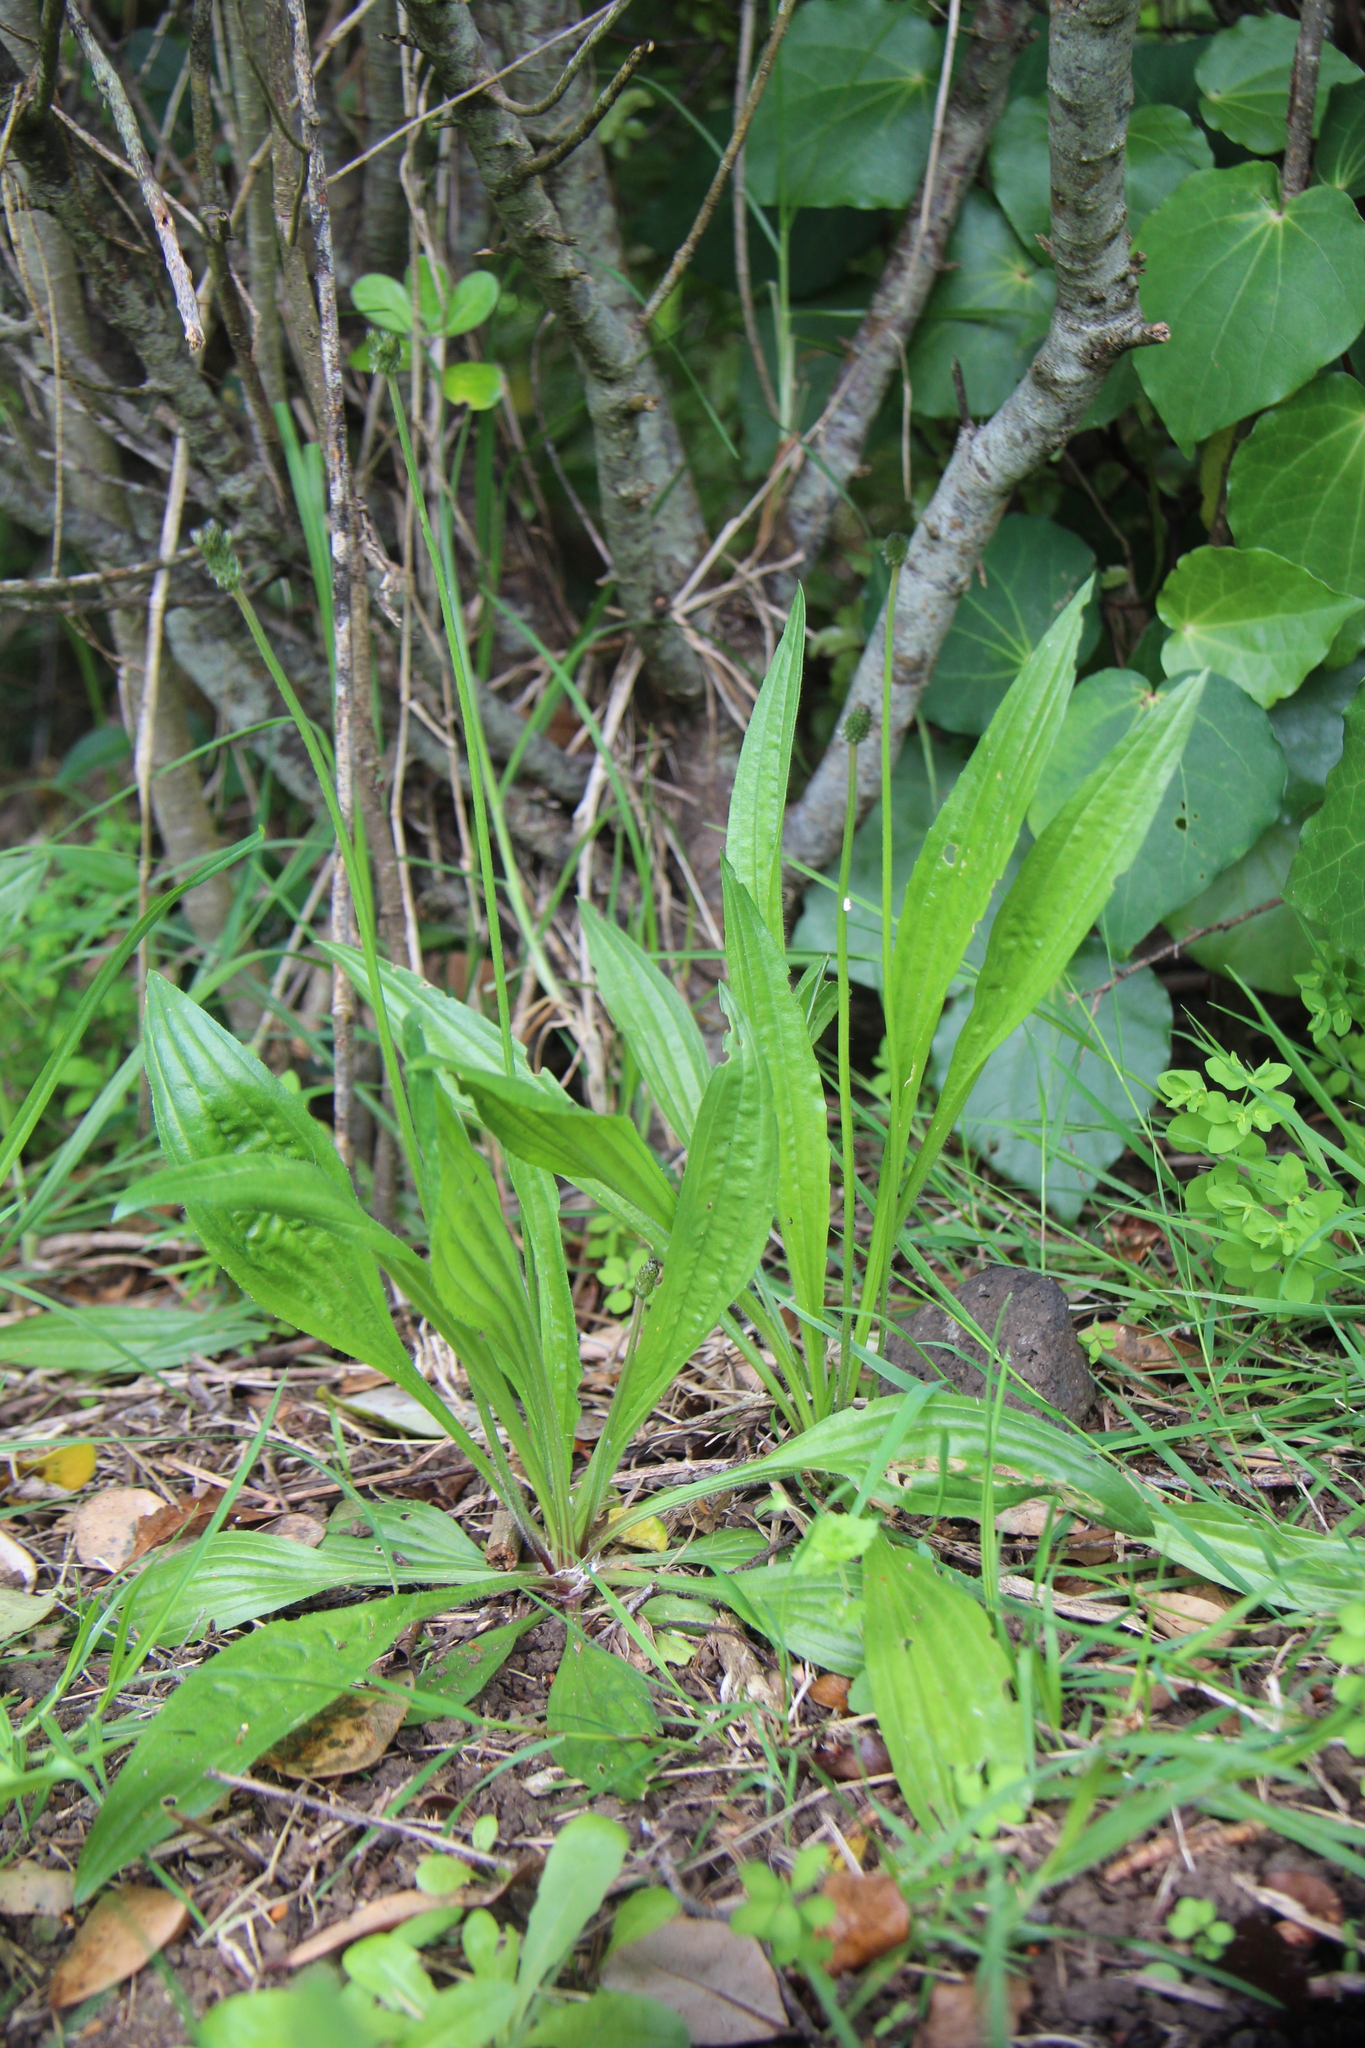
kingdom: Plantae
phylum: Tracheophyta
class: Magnoliopsida
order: Lamiales
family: Plantaginaceae
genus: Plantago
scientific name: Plantago lanceolata
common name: Ribwort plantain
